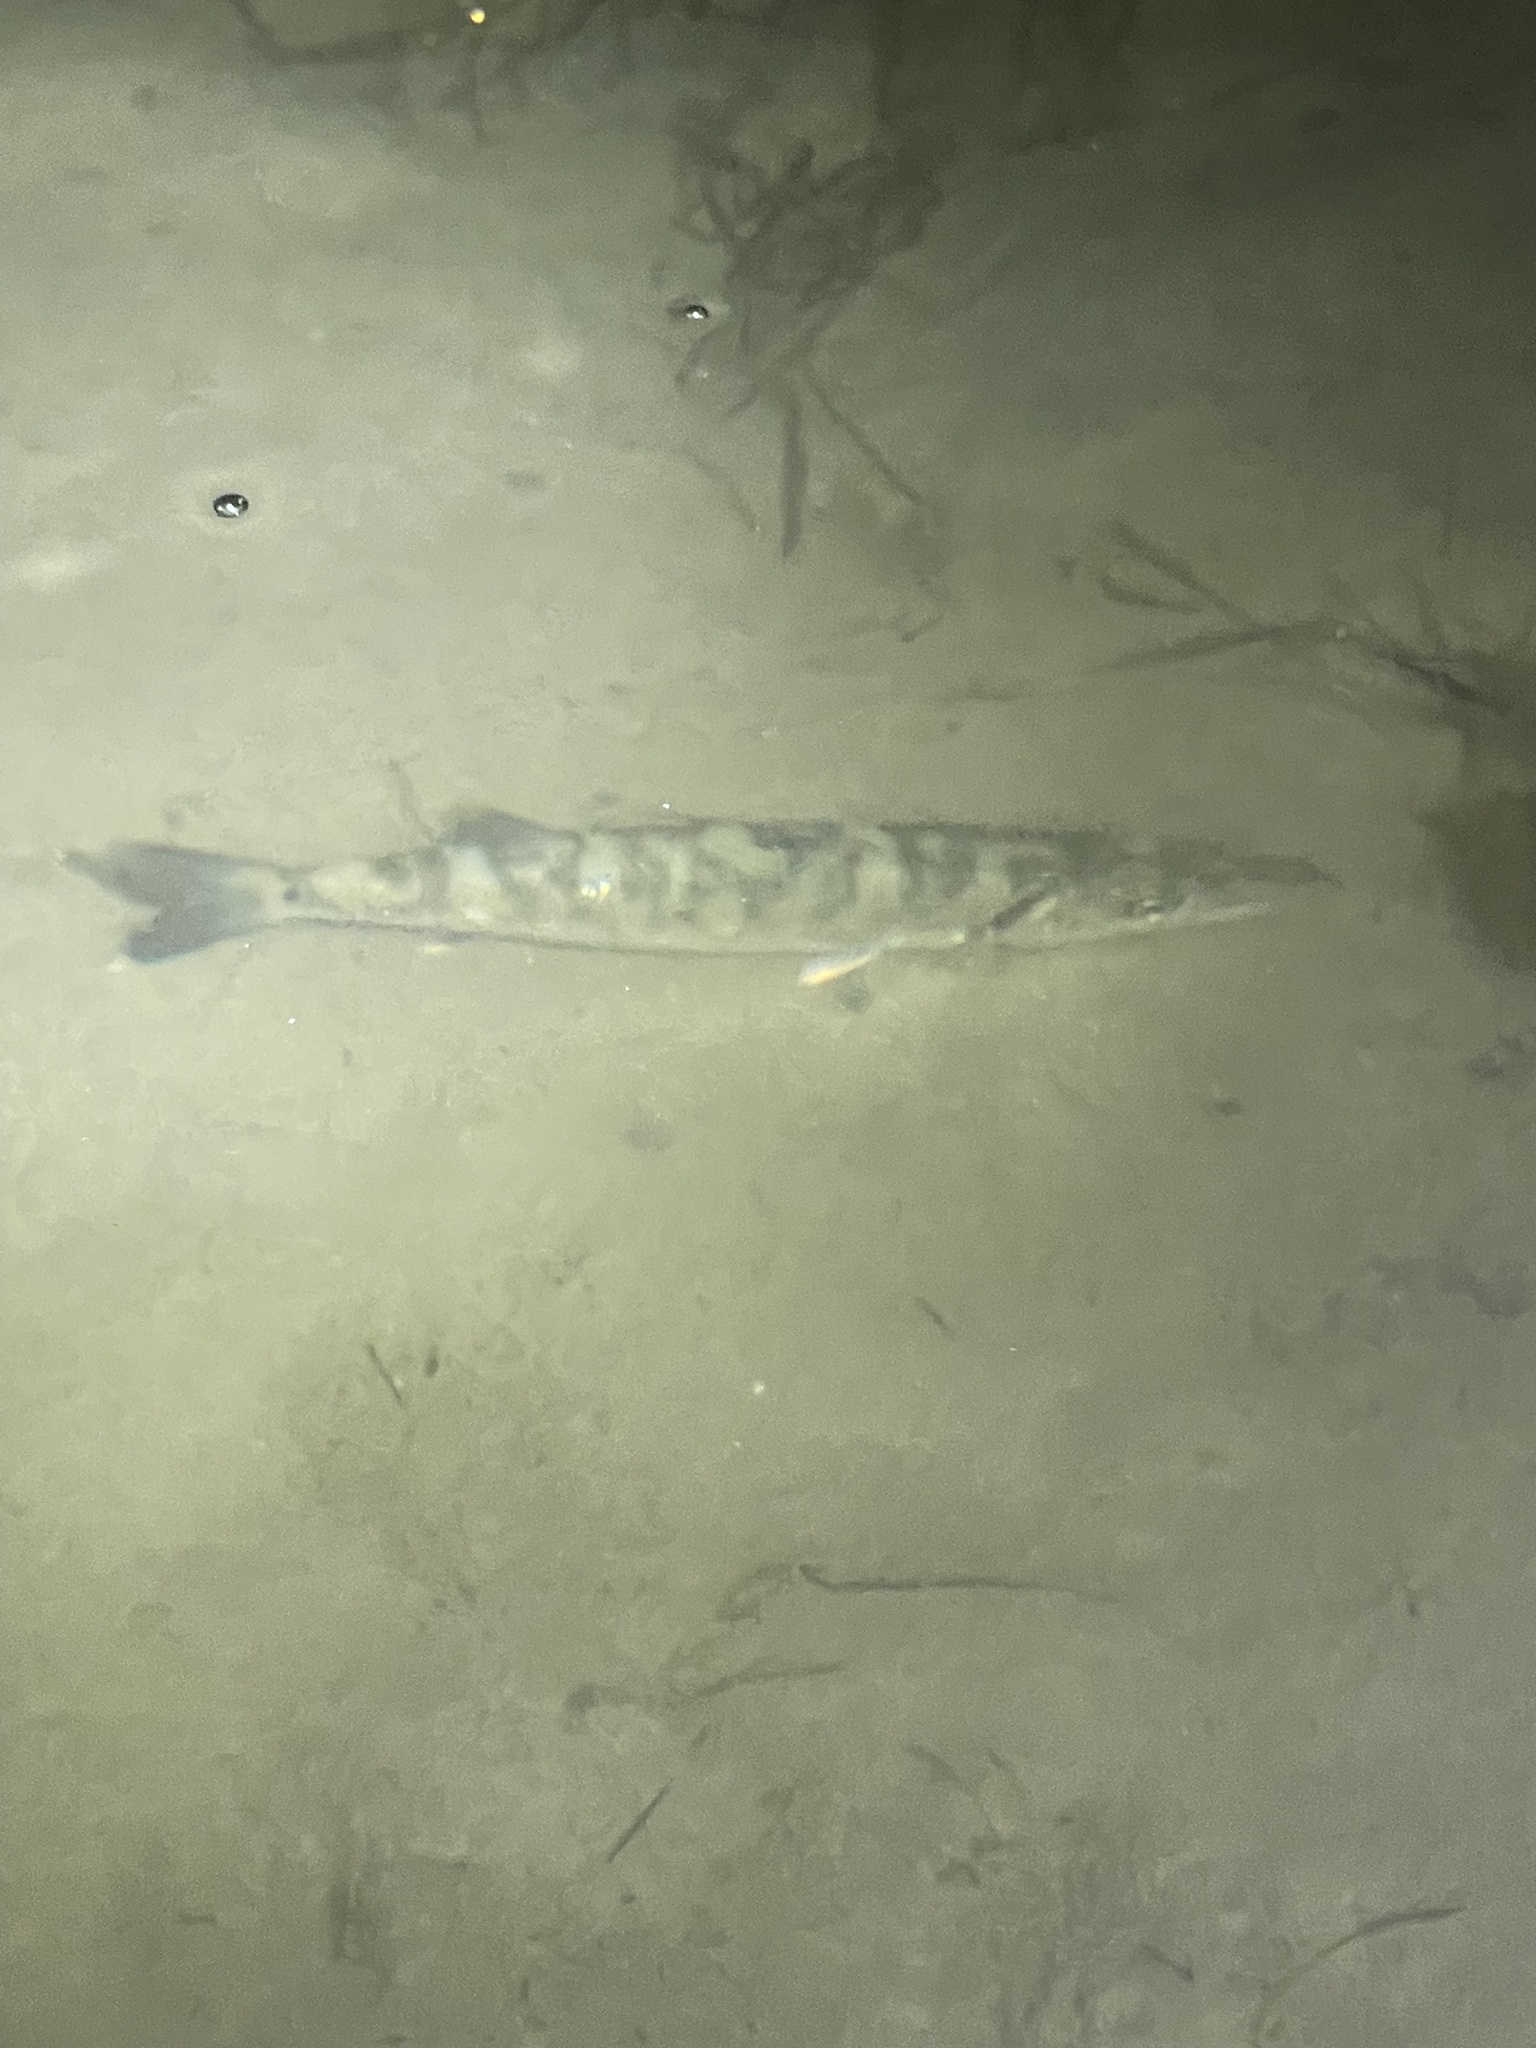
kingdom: Animalia
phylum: Chordata
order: Perciformes
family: Sphyraenidae
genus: Sphyraena
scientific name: Sphyraena barracuda
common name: Great barracuda
